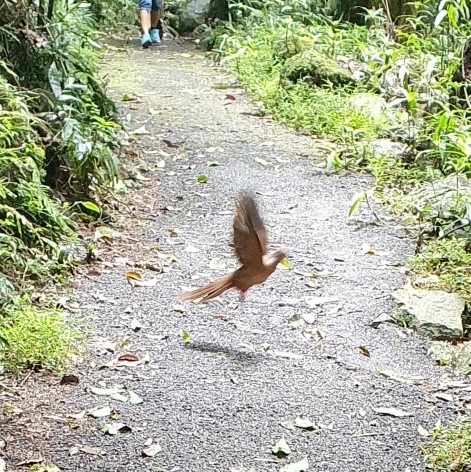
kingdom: Animalia
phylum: Chordata
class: Aves
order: Columbiformes
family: Columbidae
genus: Macropygia
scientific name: Macropygia phasianella
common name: Brown cuckoo-dove
